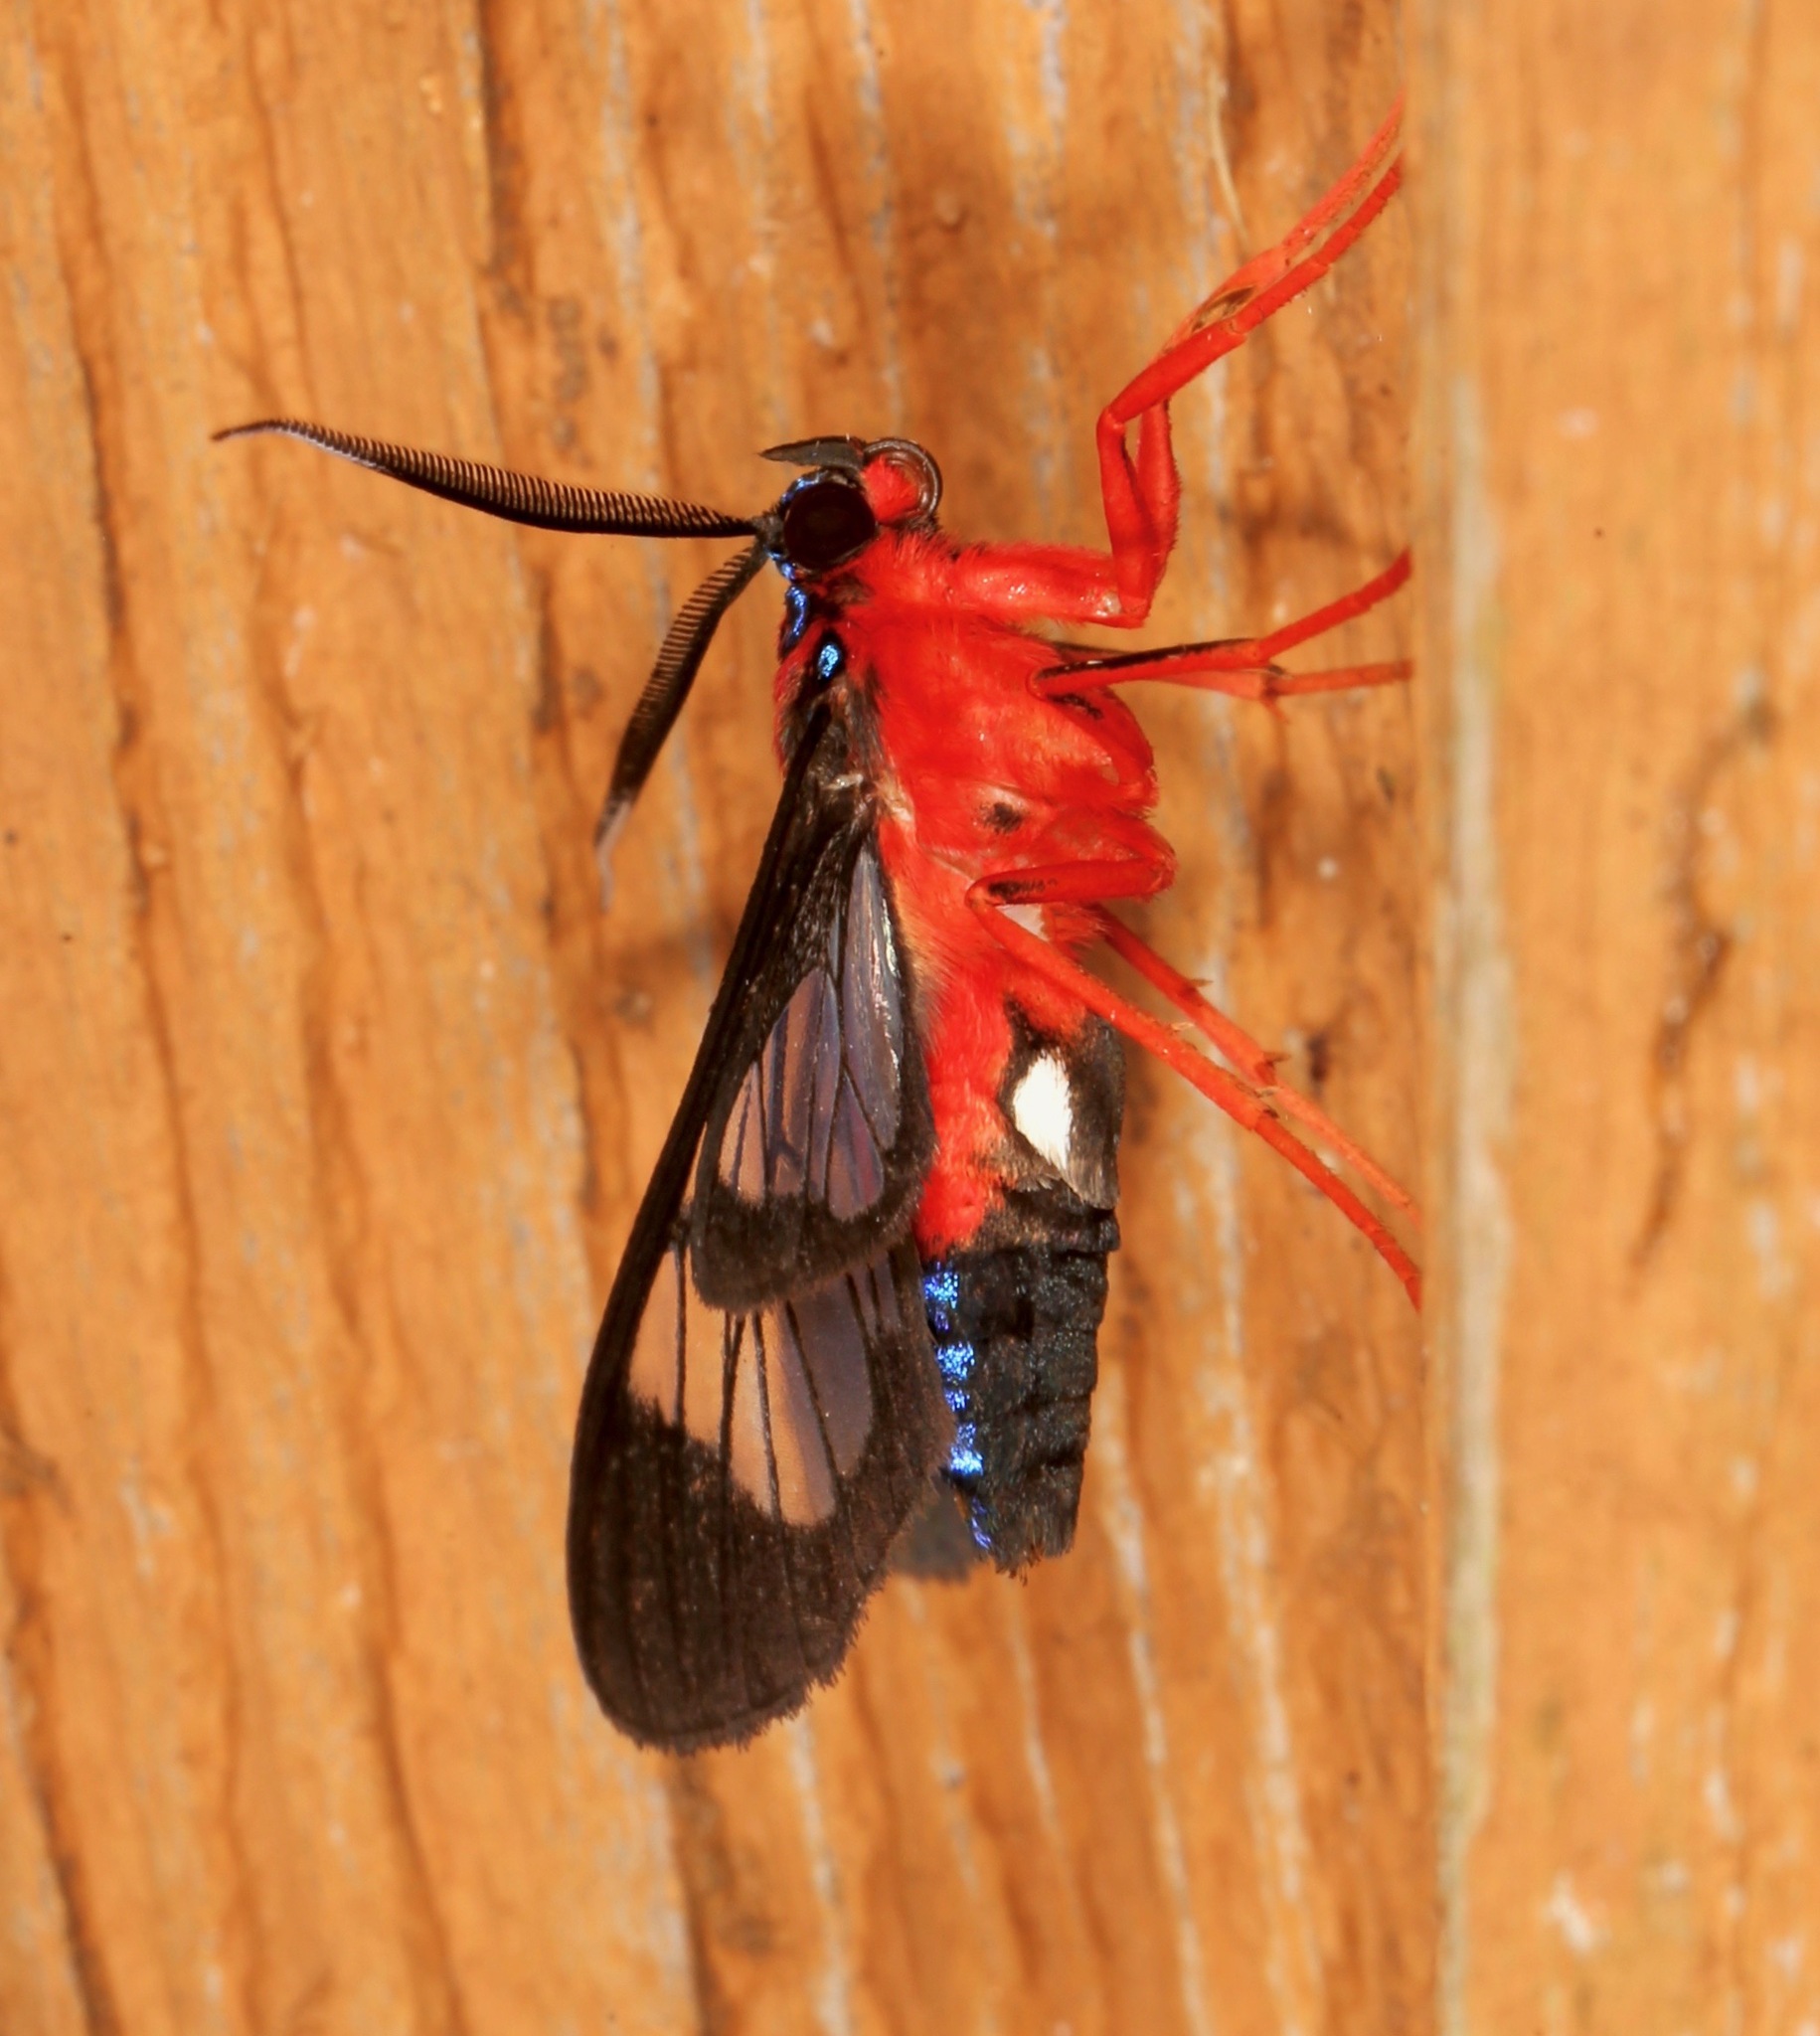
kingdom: Animalia
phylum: Arthropoda
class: Insecta
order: Lepidoptera
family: Erebidae
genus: Cosmosoma
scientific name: Cosmosoma myrodora
